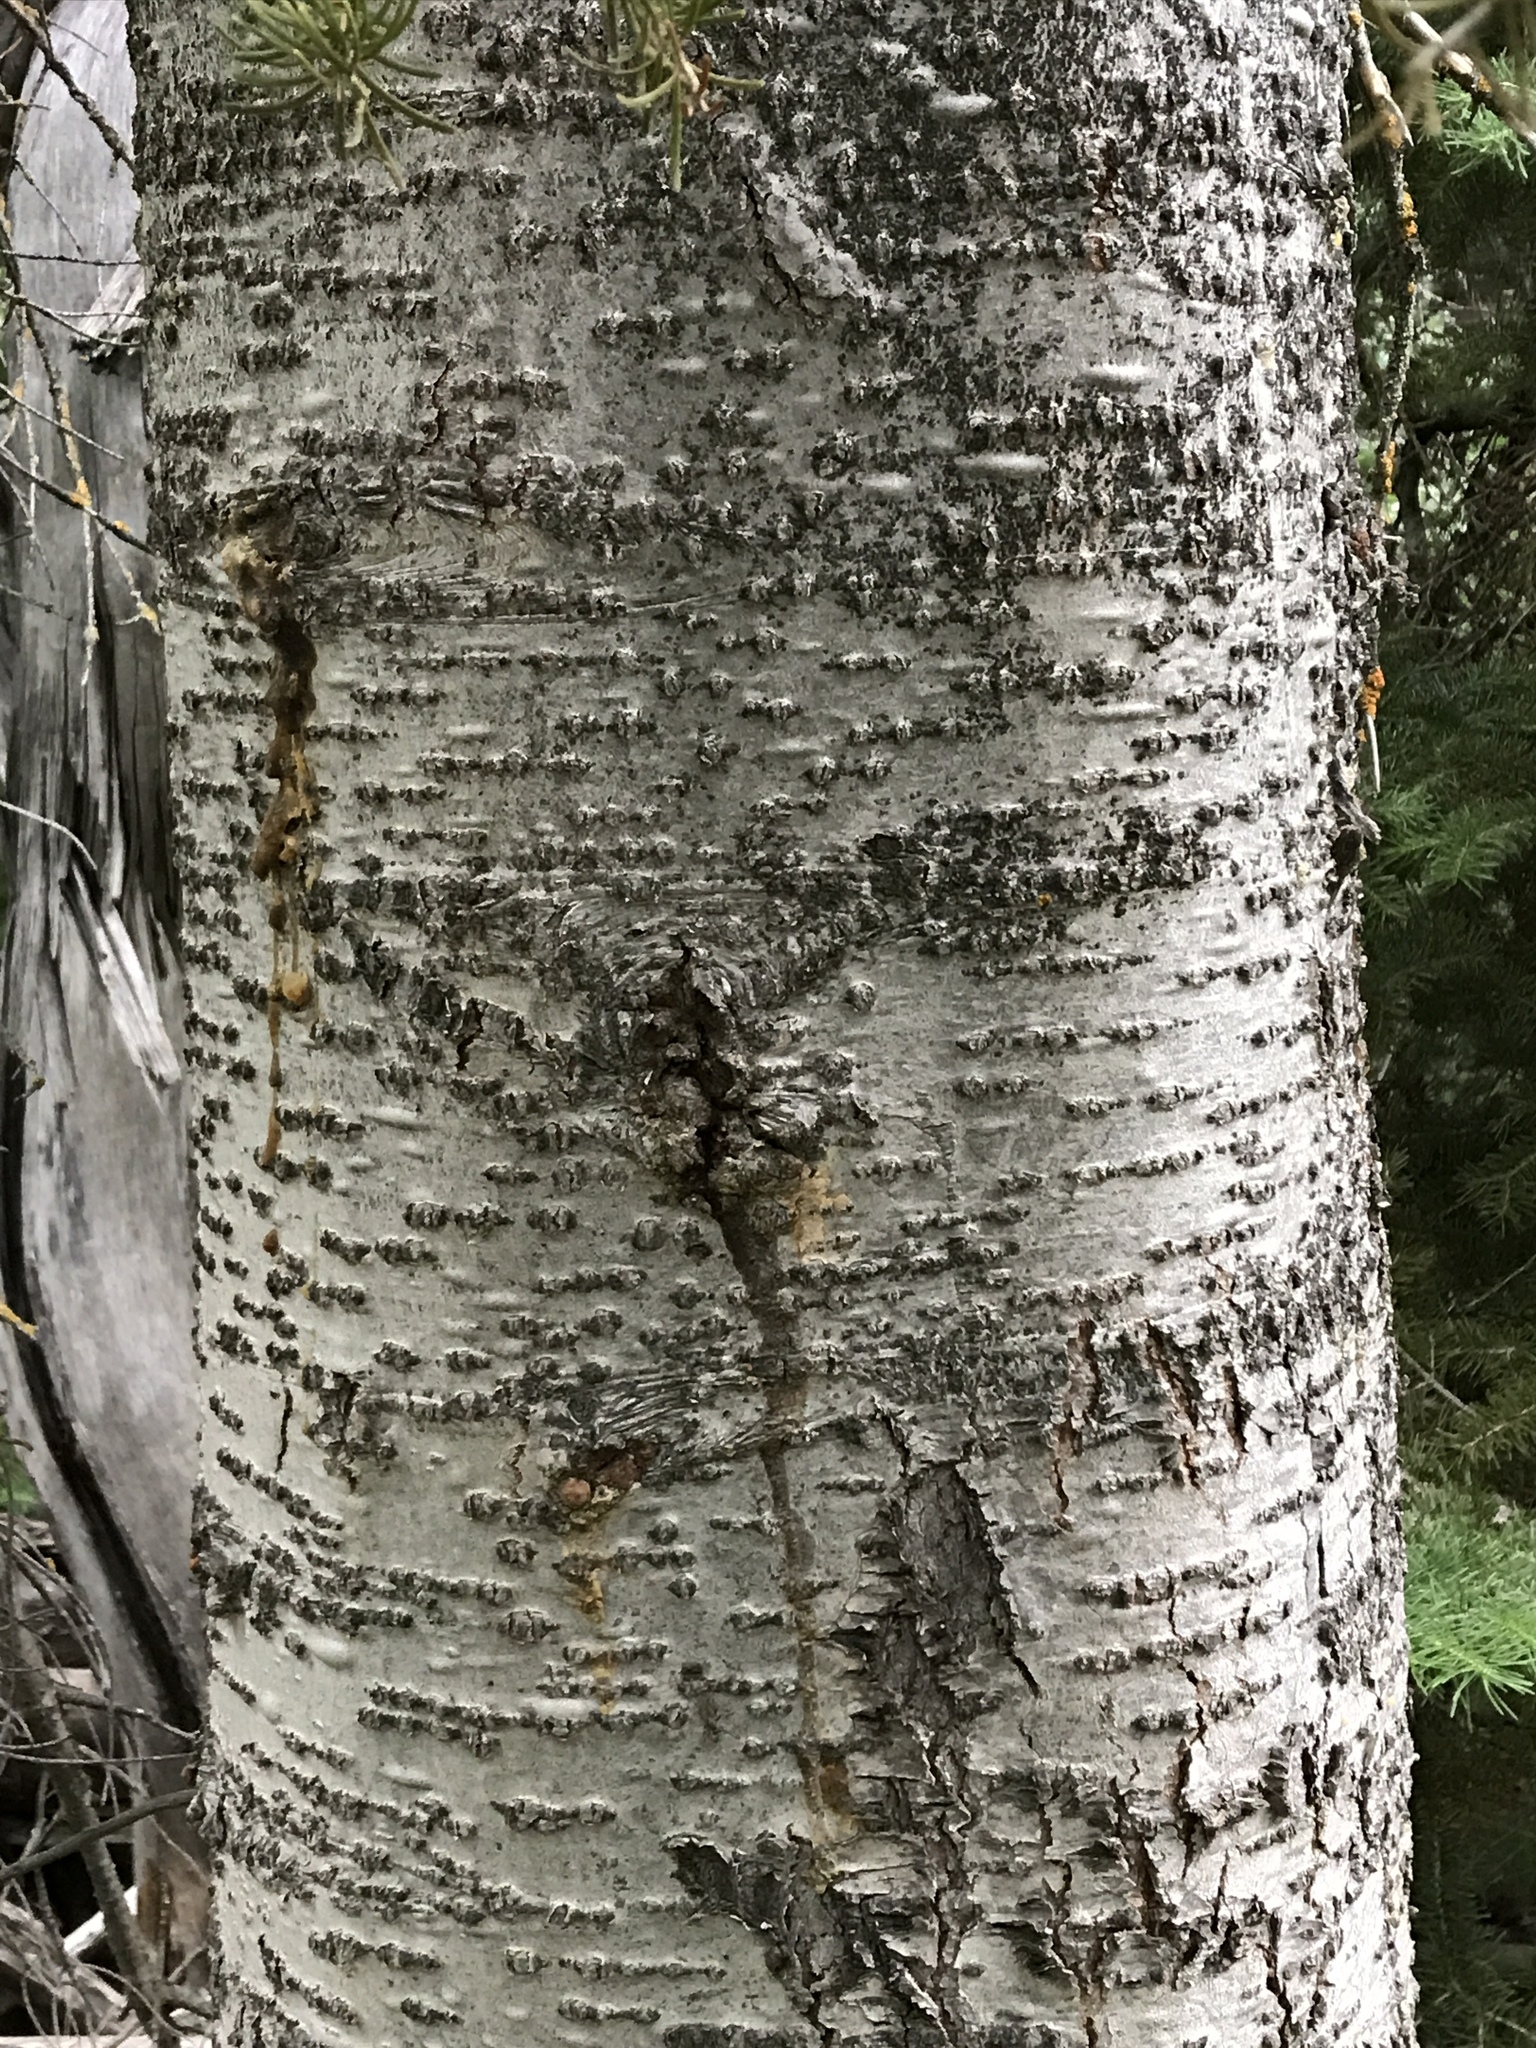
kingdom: Plantae
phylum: Tracheophyta
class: Pinopsida
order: Pinales
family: Pinaceae
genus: Abies
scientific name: Abies lasiocarpa
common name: Subalpine fir
